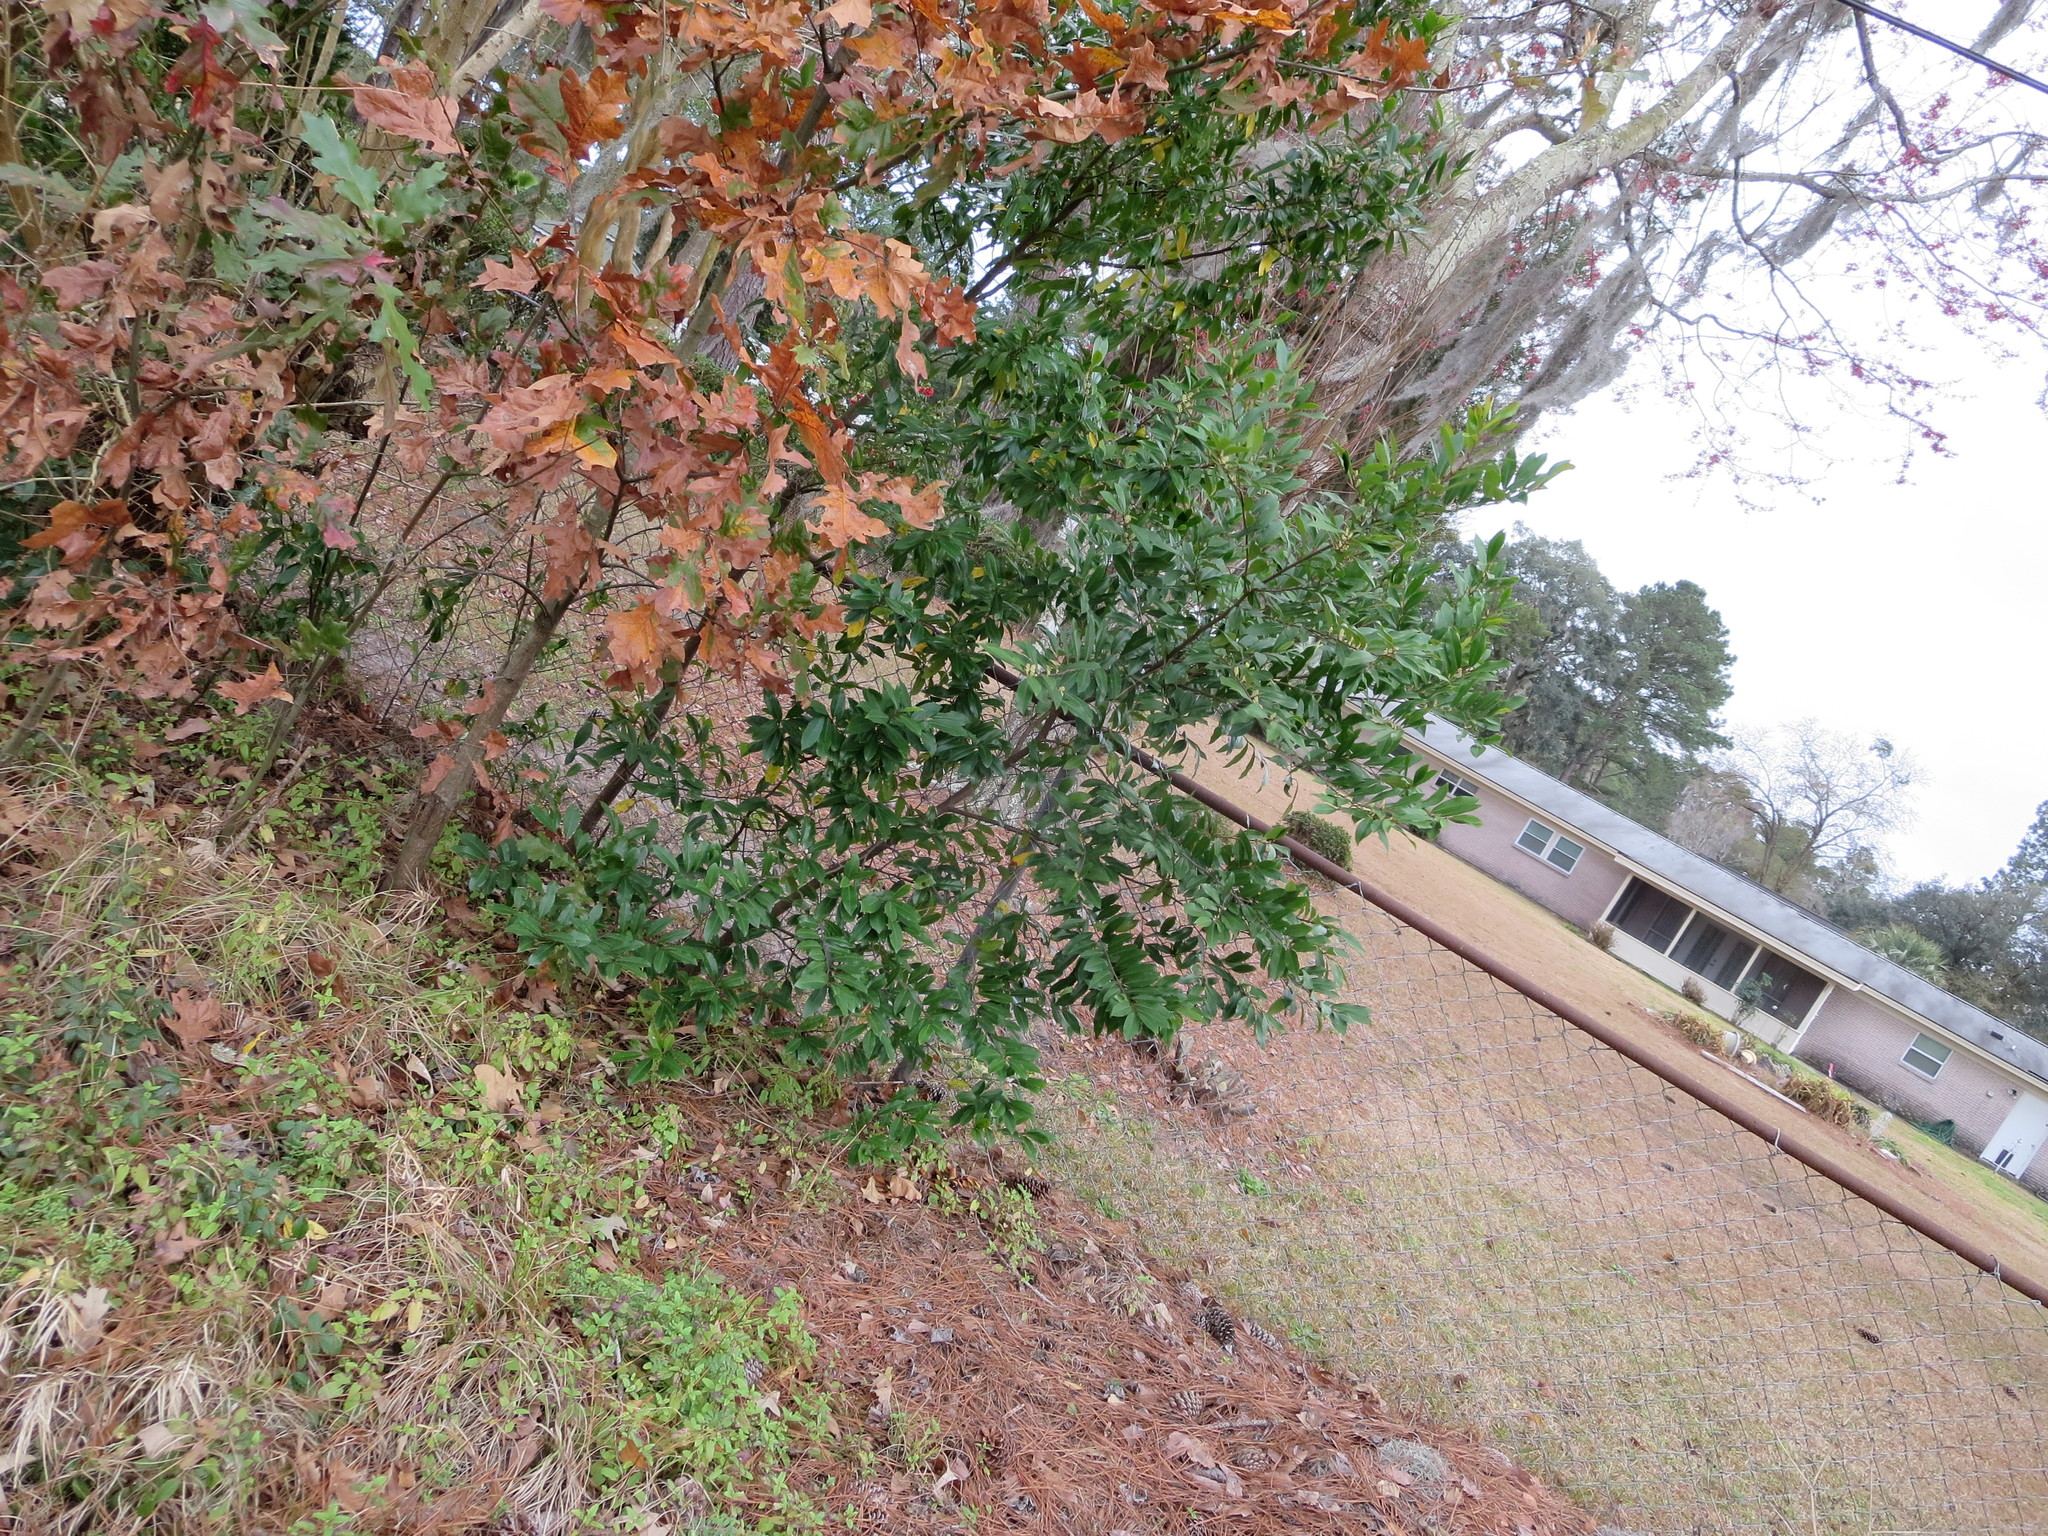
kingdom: Plantae
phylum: Tracheophyta
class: Magnoliopsida
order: Rosales
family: Rosaceae
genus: Prunus
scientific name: Prunus caroliniana
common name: Carolina laurel cherry
